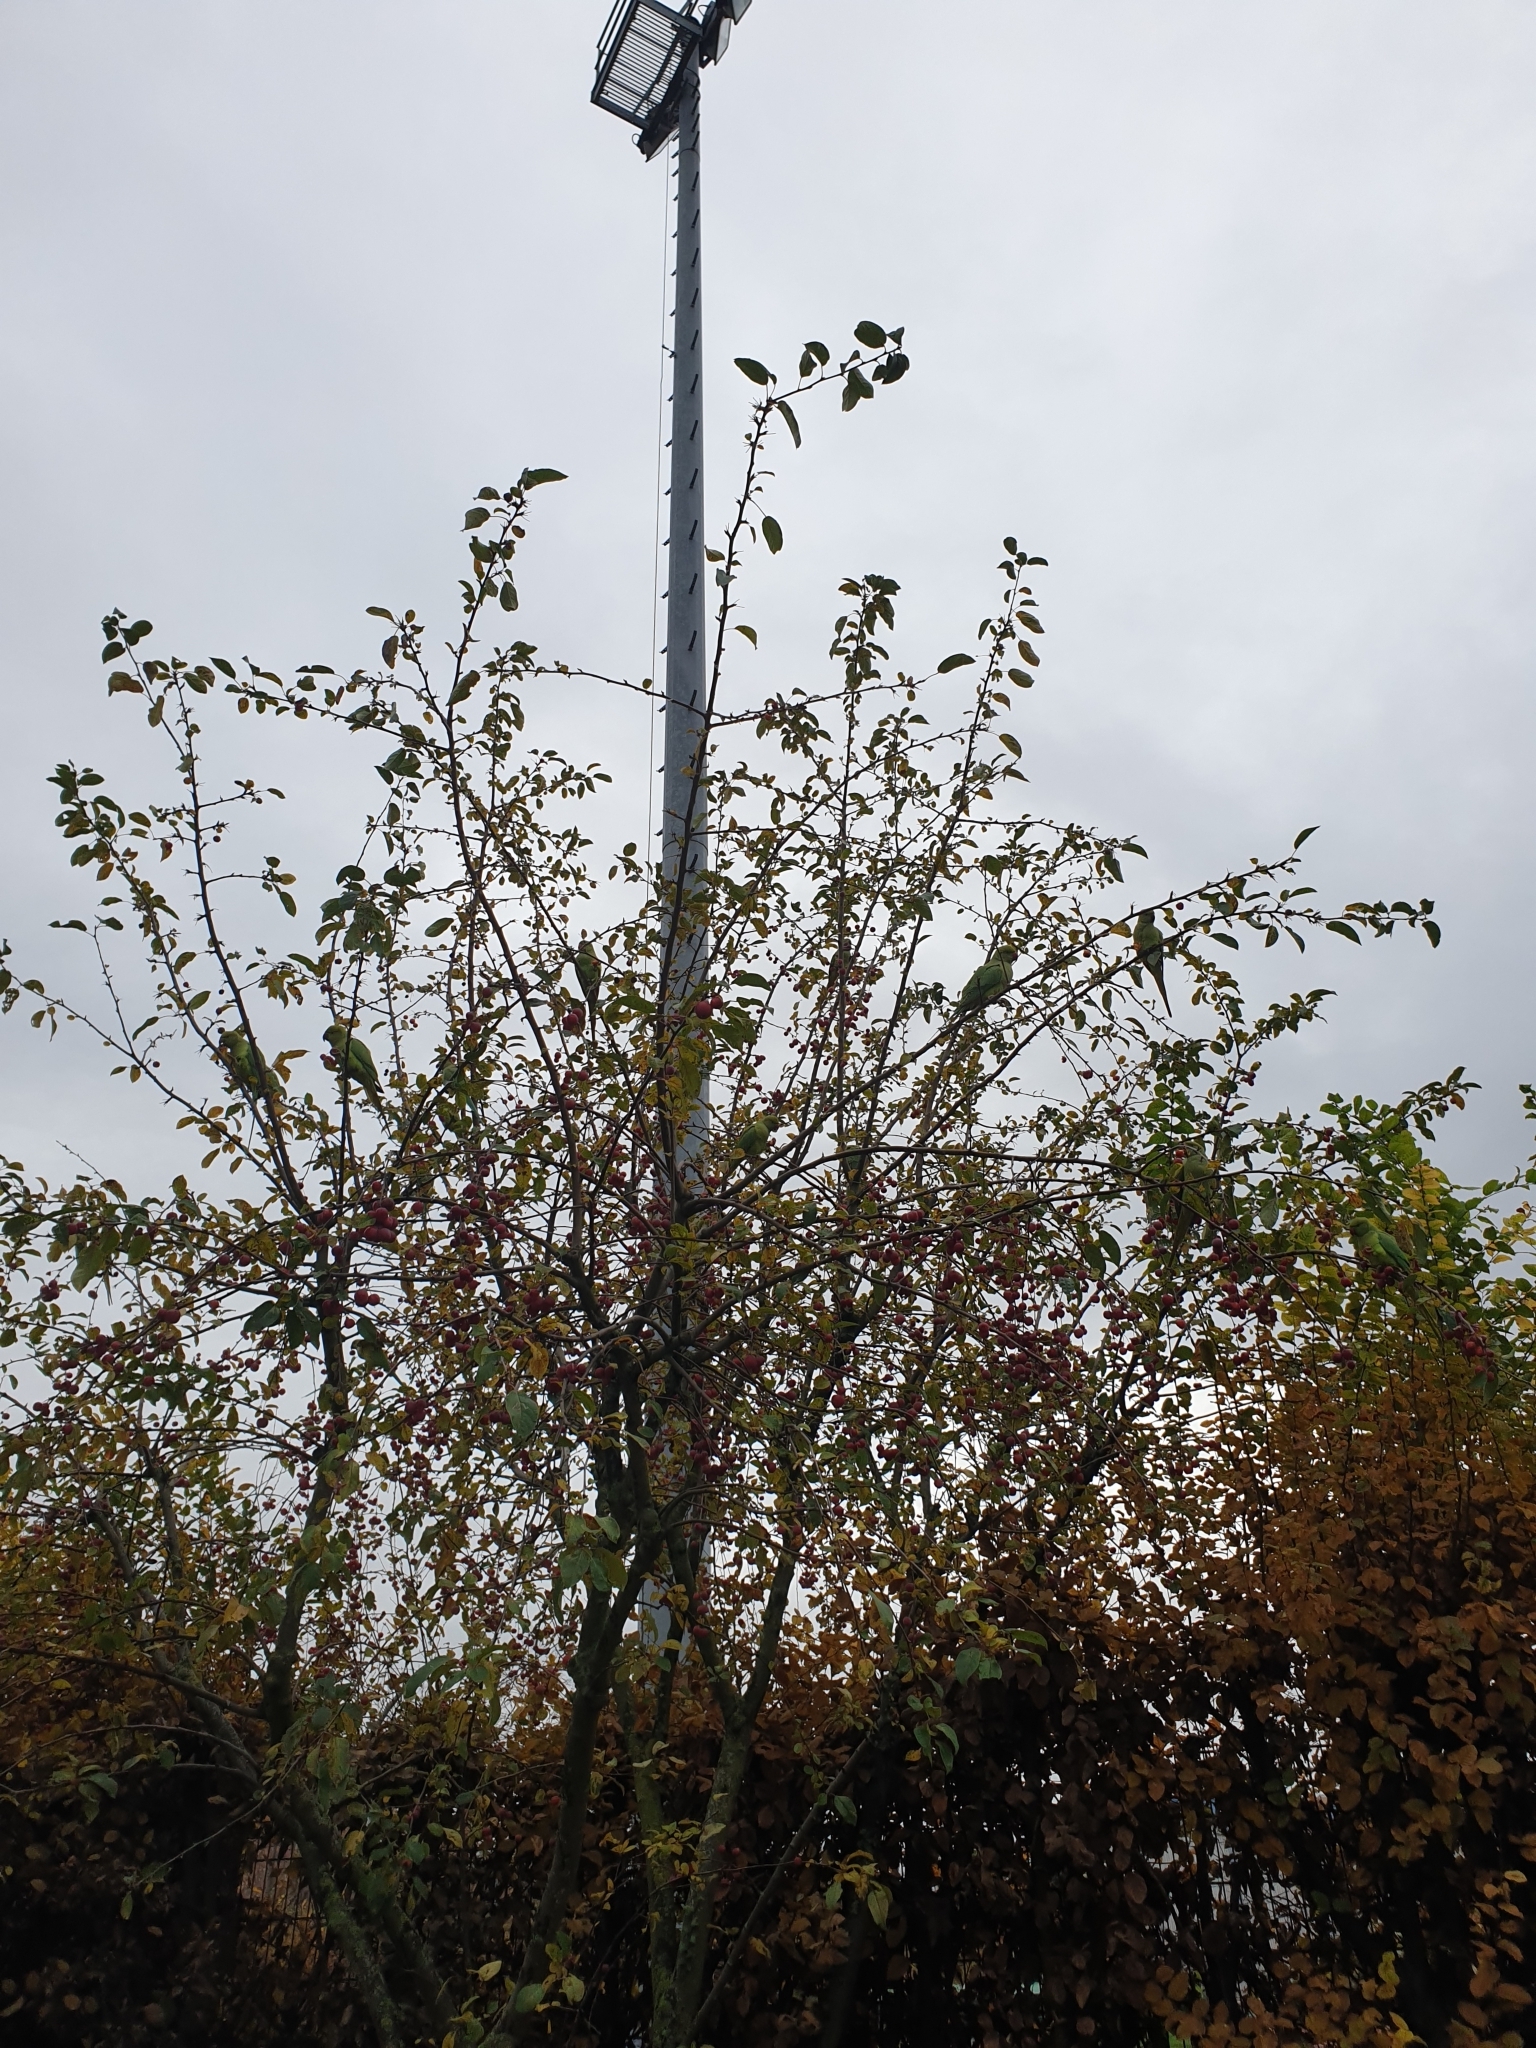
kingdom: Animalia
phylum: Chordata
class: Aves
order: Psittaciformes
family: Psittacidae
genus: Psittacula
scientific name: Psittacula krameri
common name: Rose-ringed parakeet
